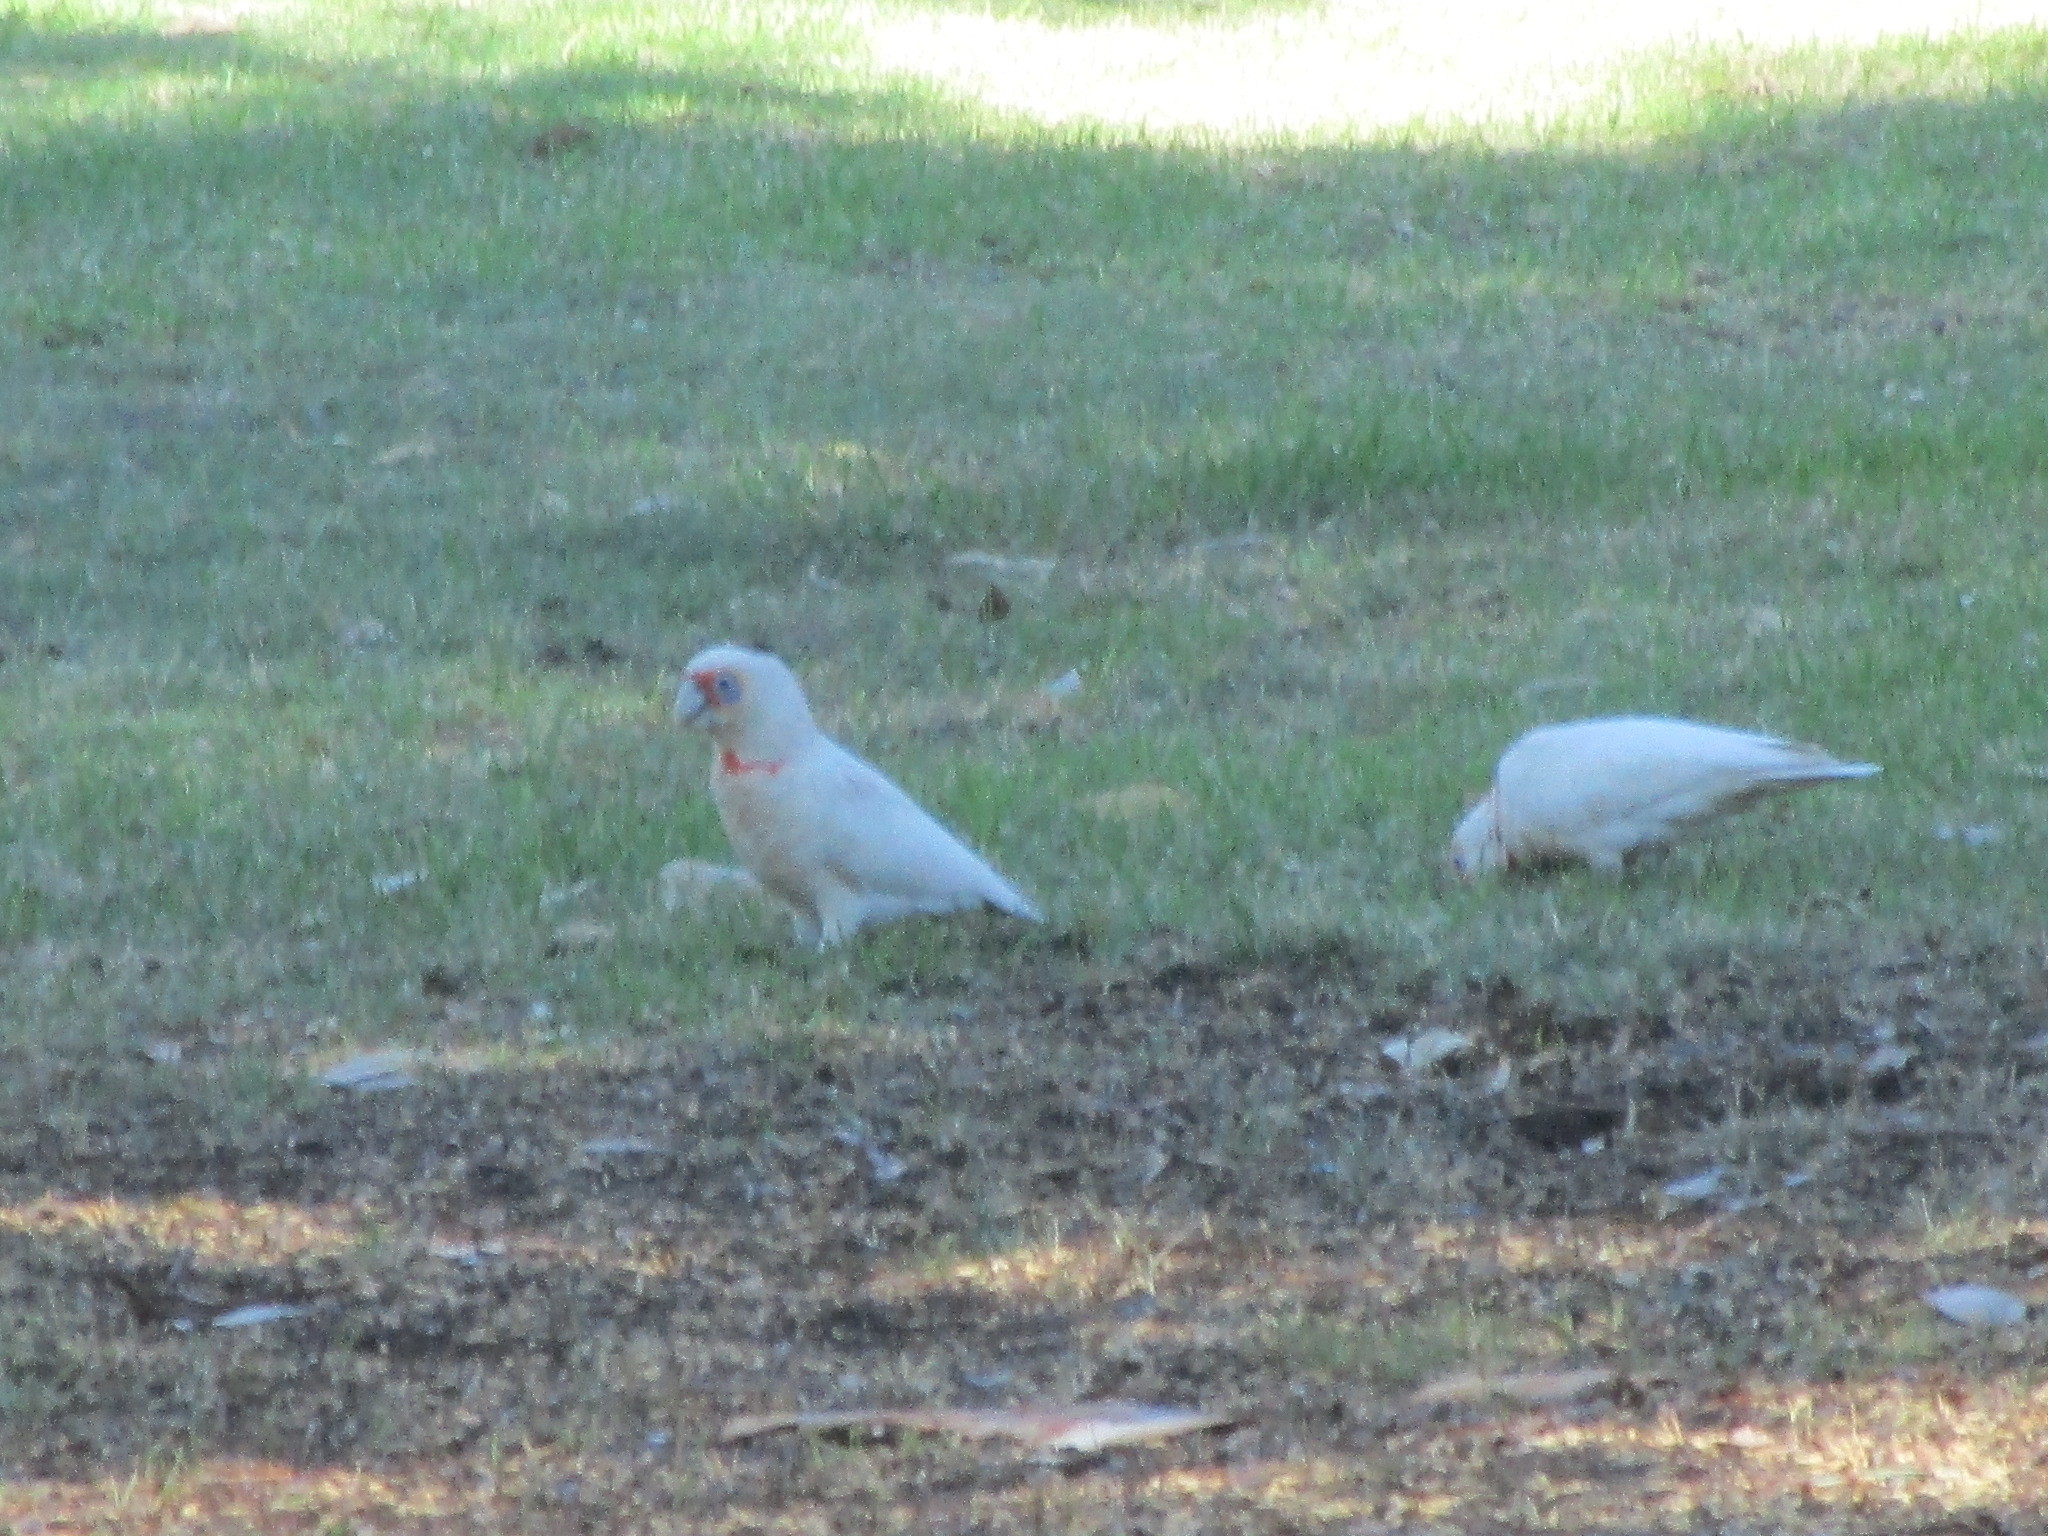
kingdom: Animalia
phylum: Chordata
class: Aves
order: Psittaciformes
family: Psittacidae
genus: Cacatua
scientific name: Cacatua tenuirostris
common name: Long-billed corella
